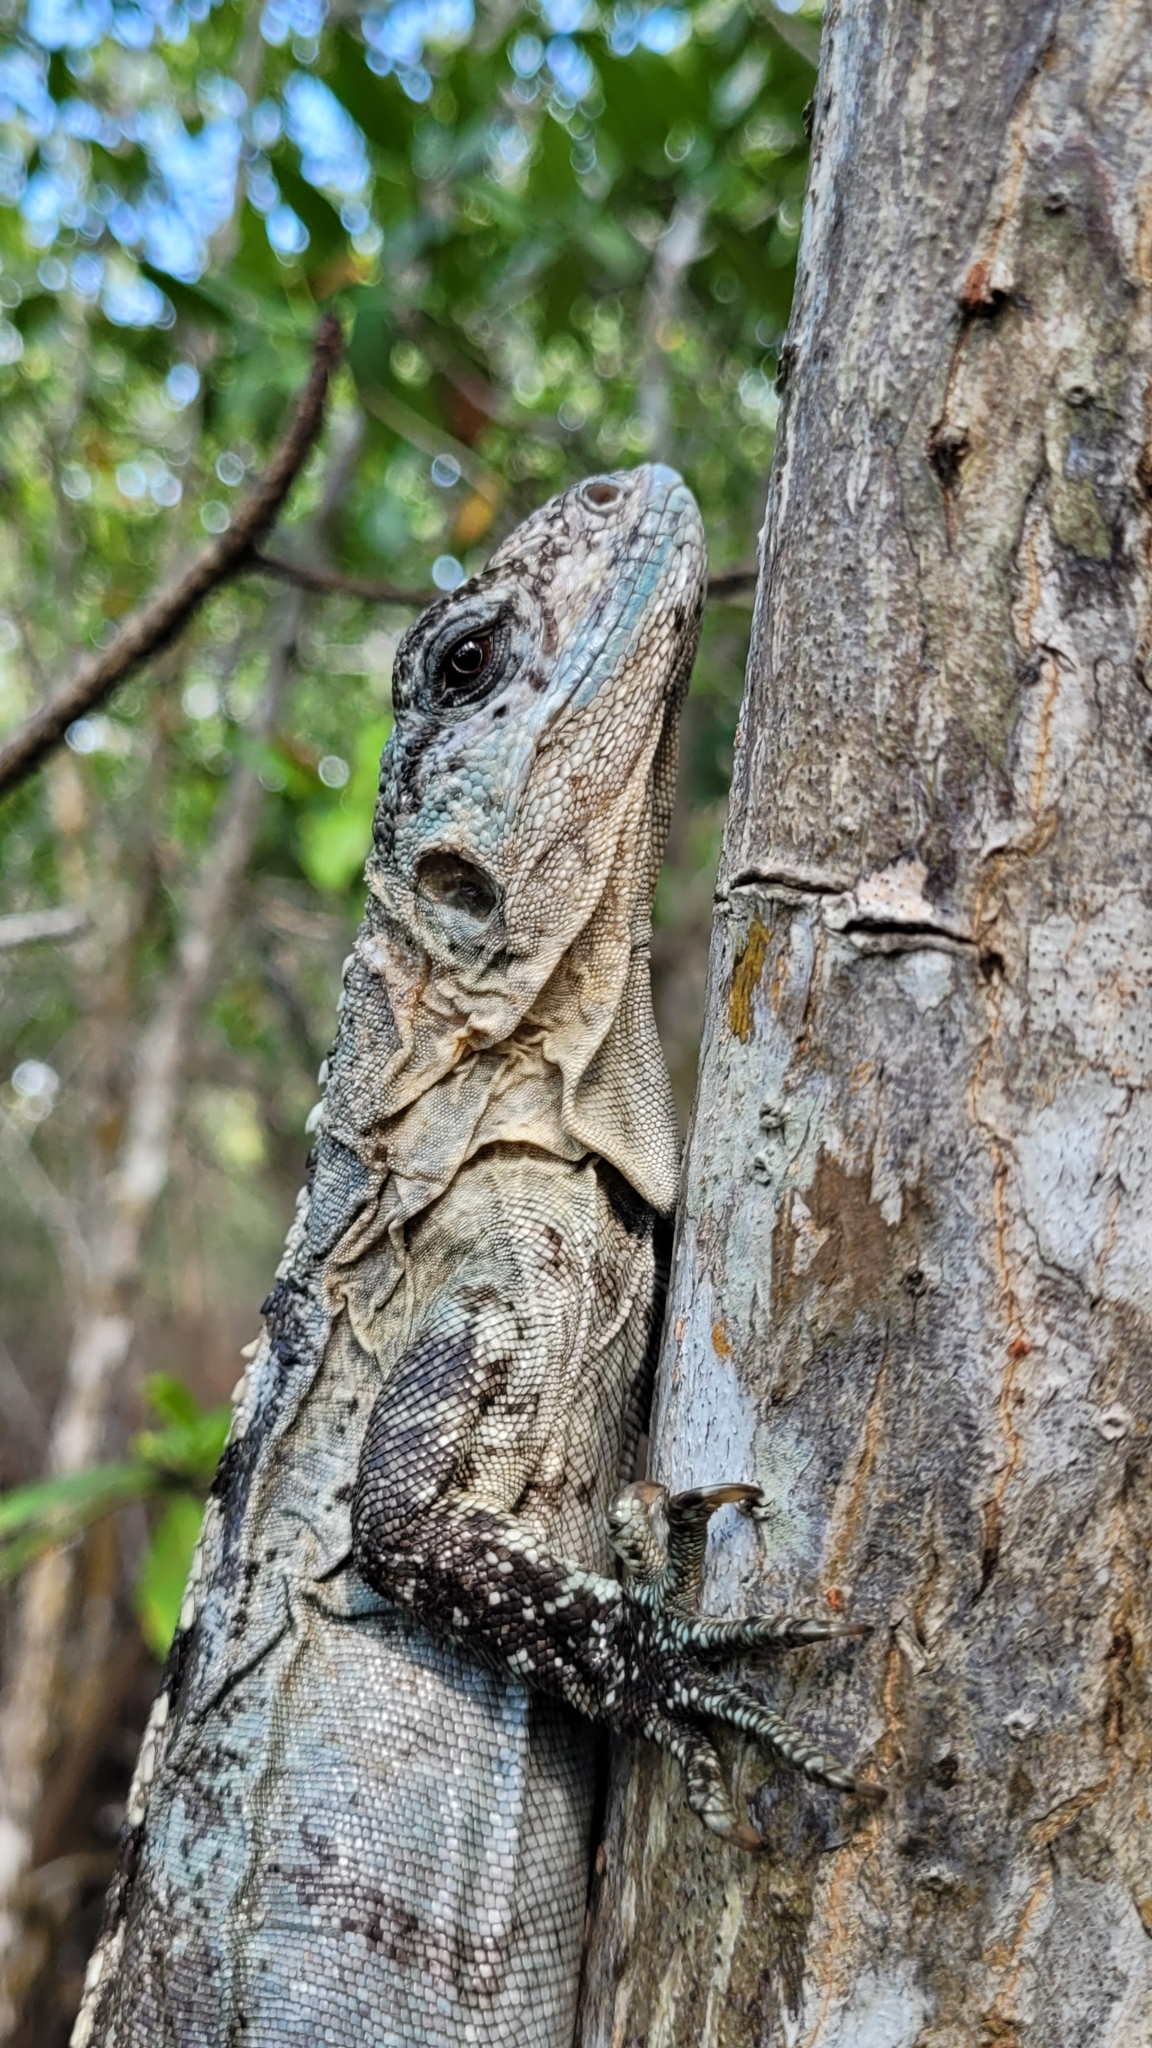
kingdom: Animalia
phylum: Chordata
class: Squamata
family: Iguanidae
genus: Ctenosaura
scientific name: Ctenosaura bakeri
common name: Utila spiny-tailed iguana
